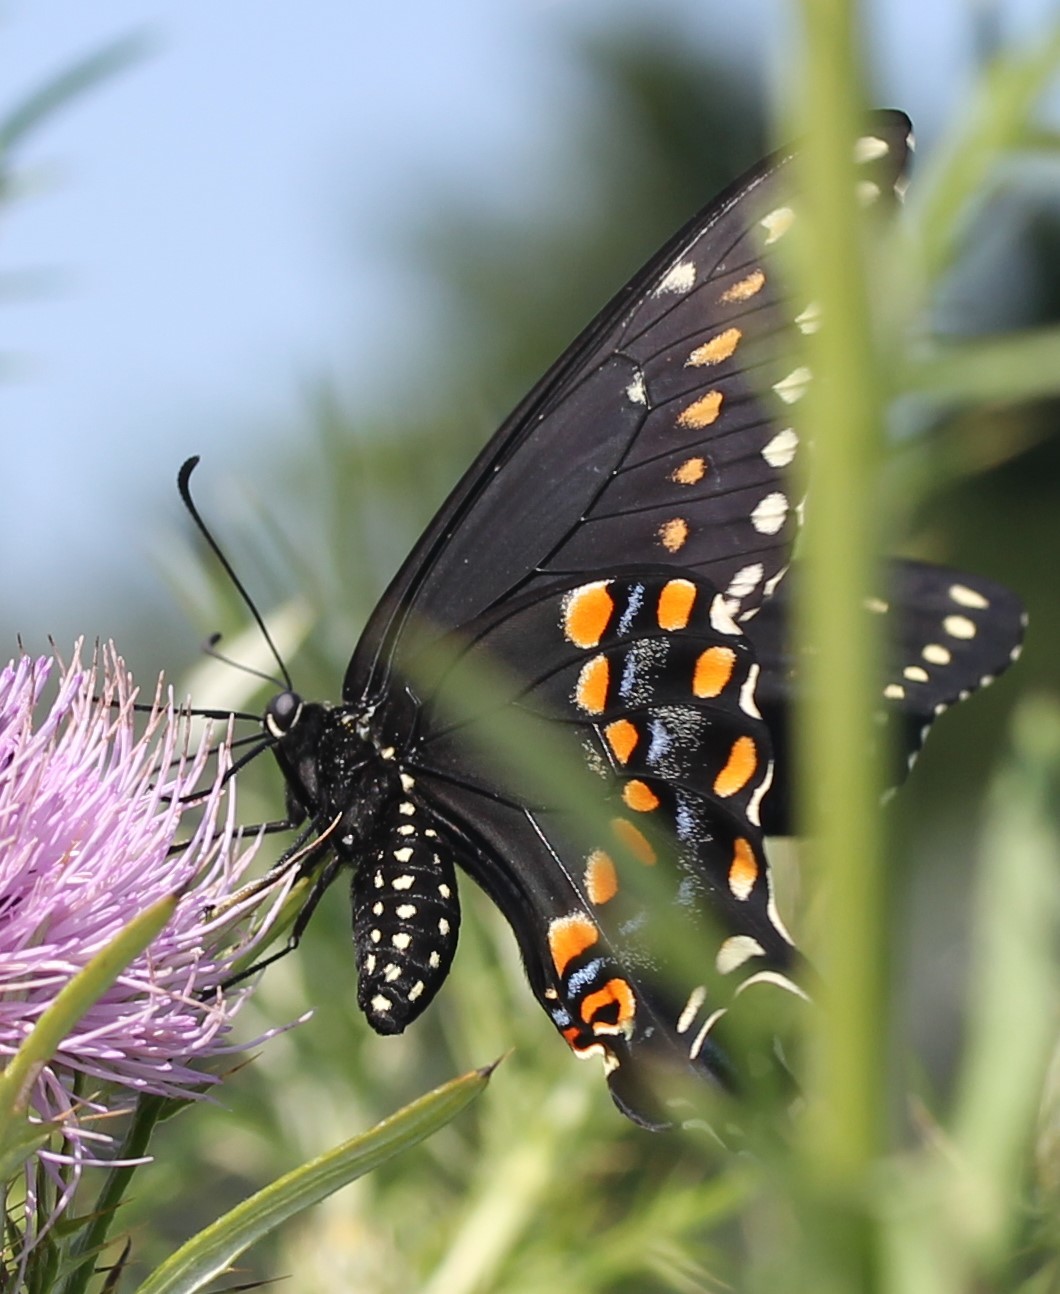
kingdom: Animalia
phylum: Arthropoda
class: Insecta
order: Lepidoptera
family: Papilionidae
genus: Papilio
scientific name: Papilio polyxenes
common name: Black swallowtail
